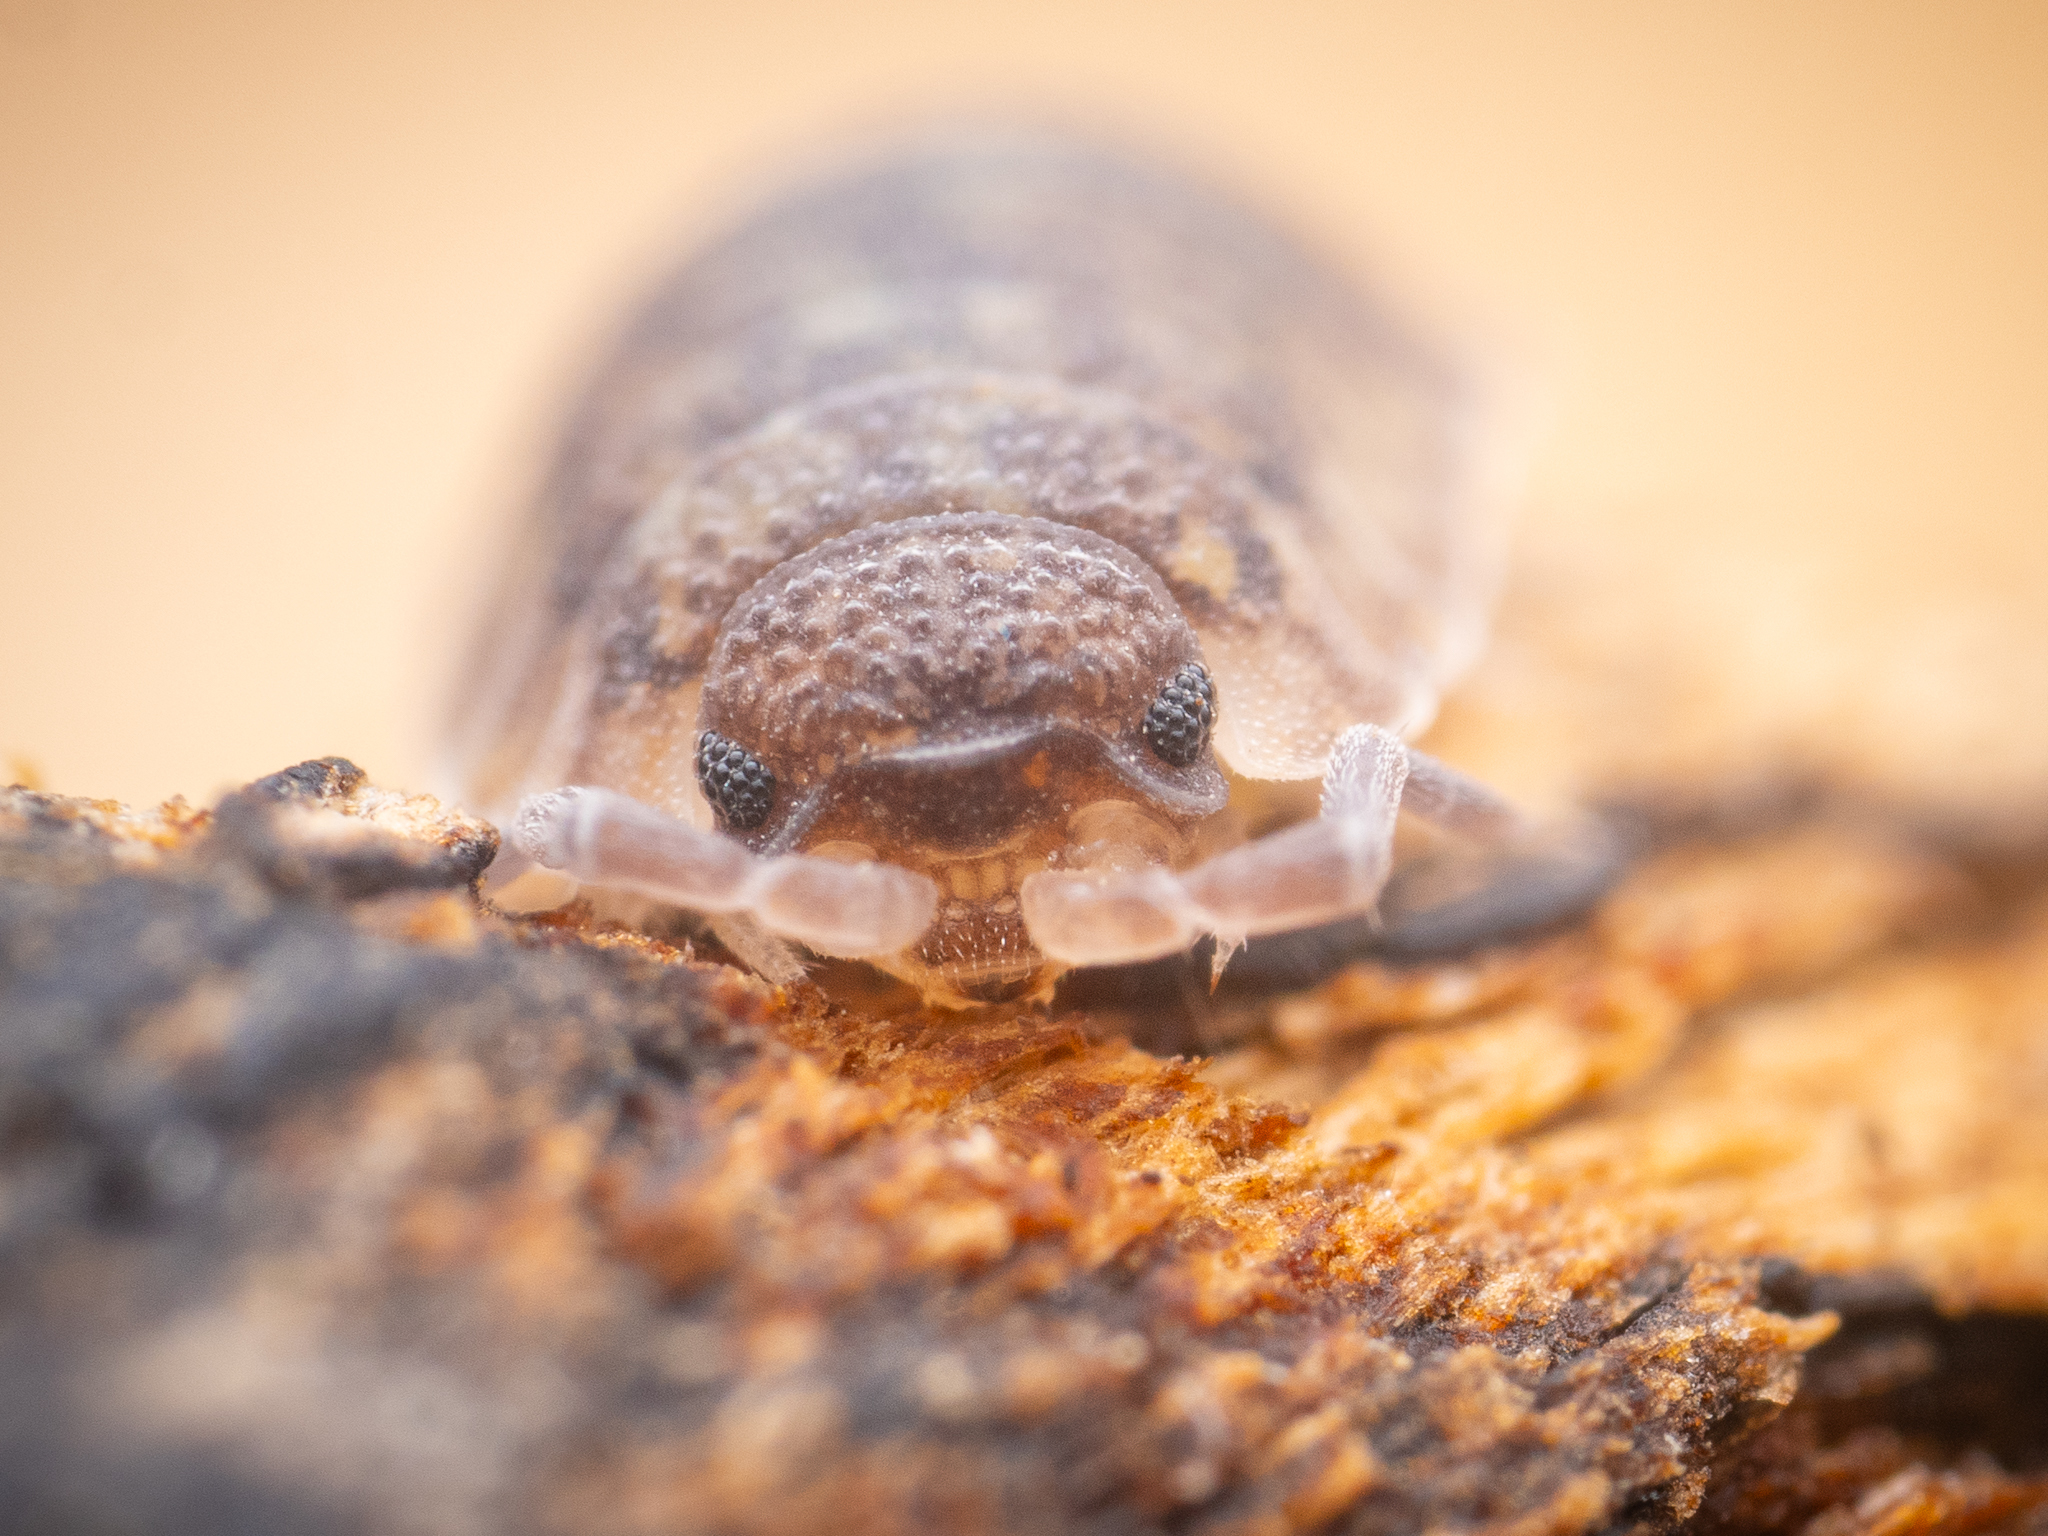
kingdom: Animalia
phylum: Arthropoda
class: Malacostraca
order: Isopoda
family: Porcellionidae
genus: Porcellio
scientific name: Porcellio scaber
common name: Common rough woodlouse
